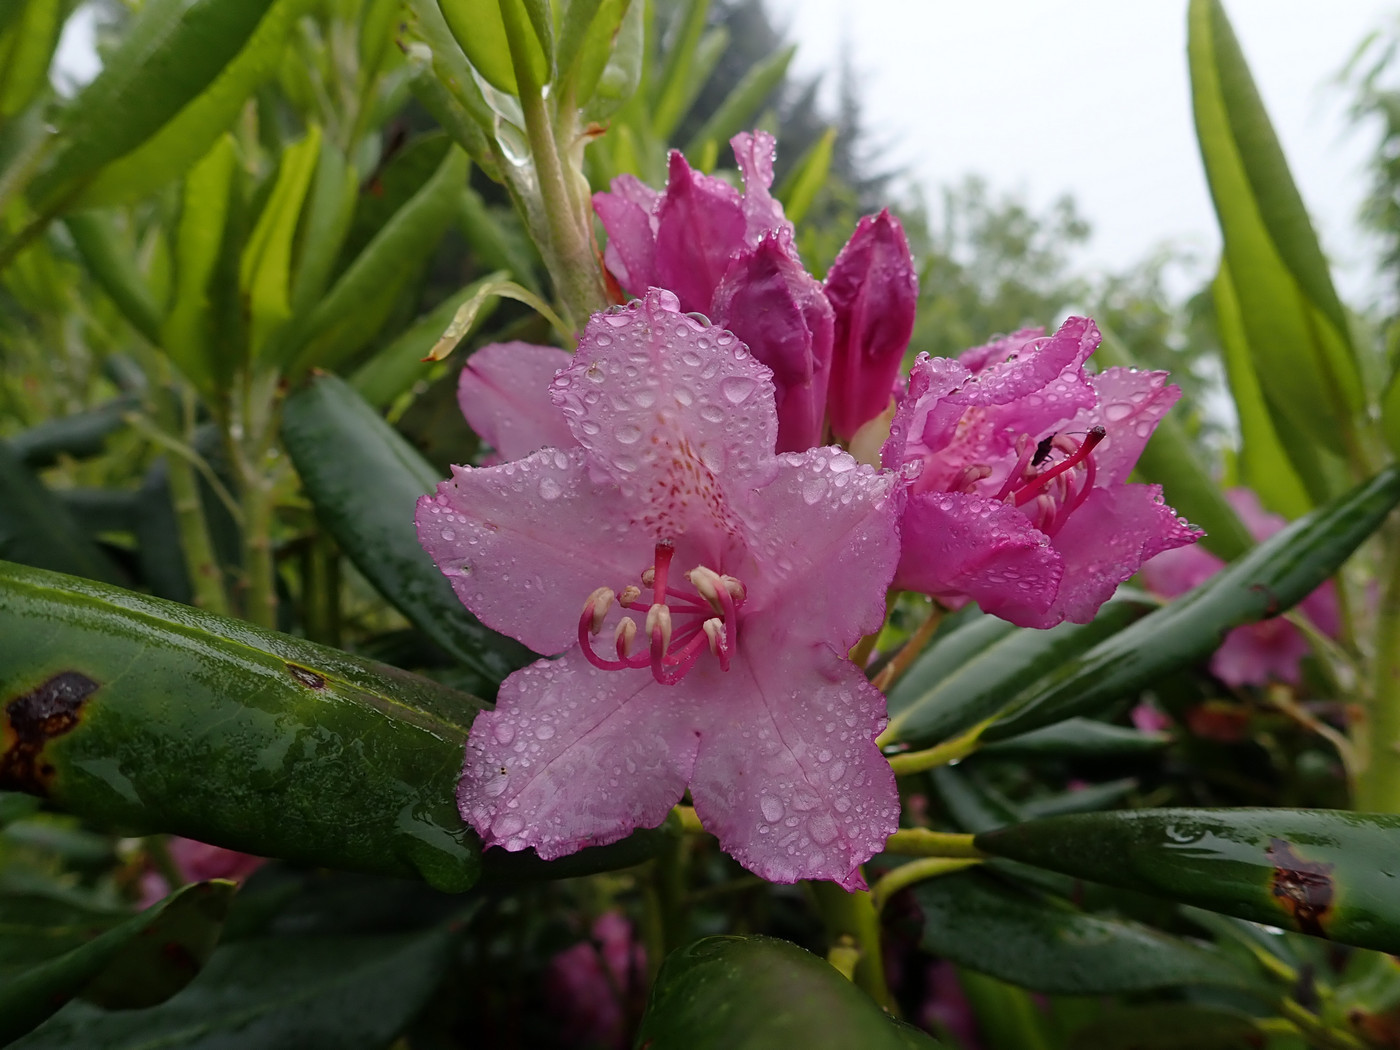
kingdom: Plantae
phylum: Tracheophyta
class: Magnoliopsida
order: Ericales
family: Ericaceae
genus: Rhododendron
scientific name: Rhododendron catawbiense
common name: Catawba rhododendron
